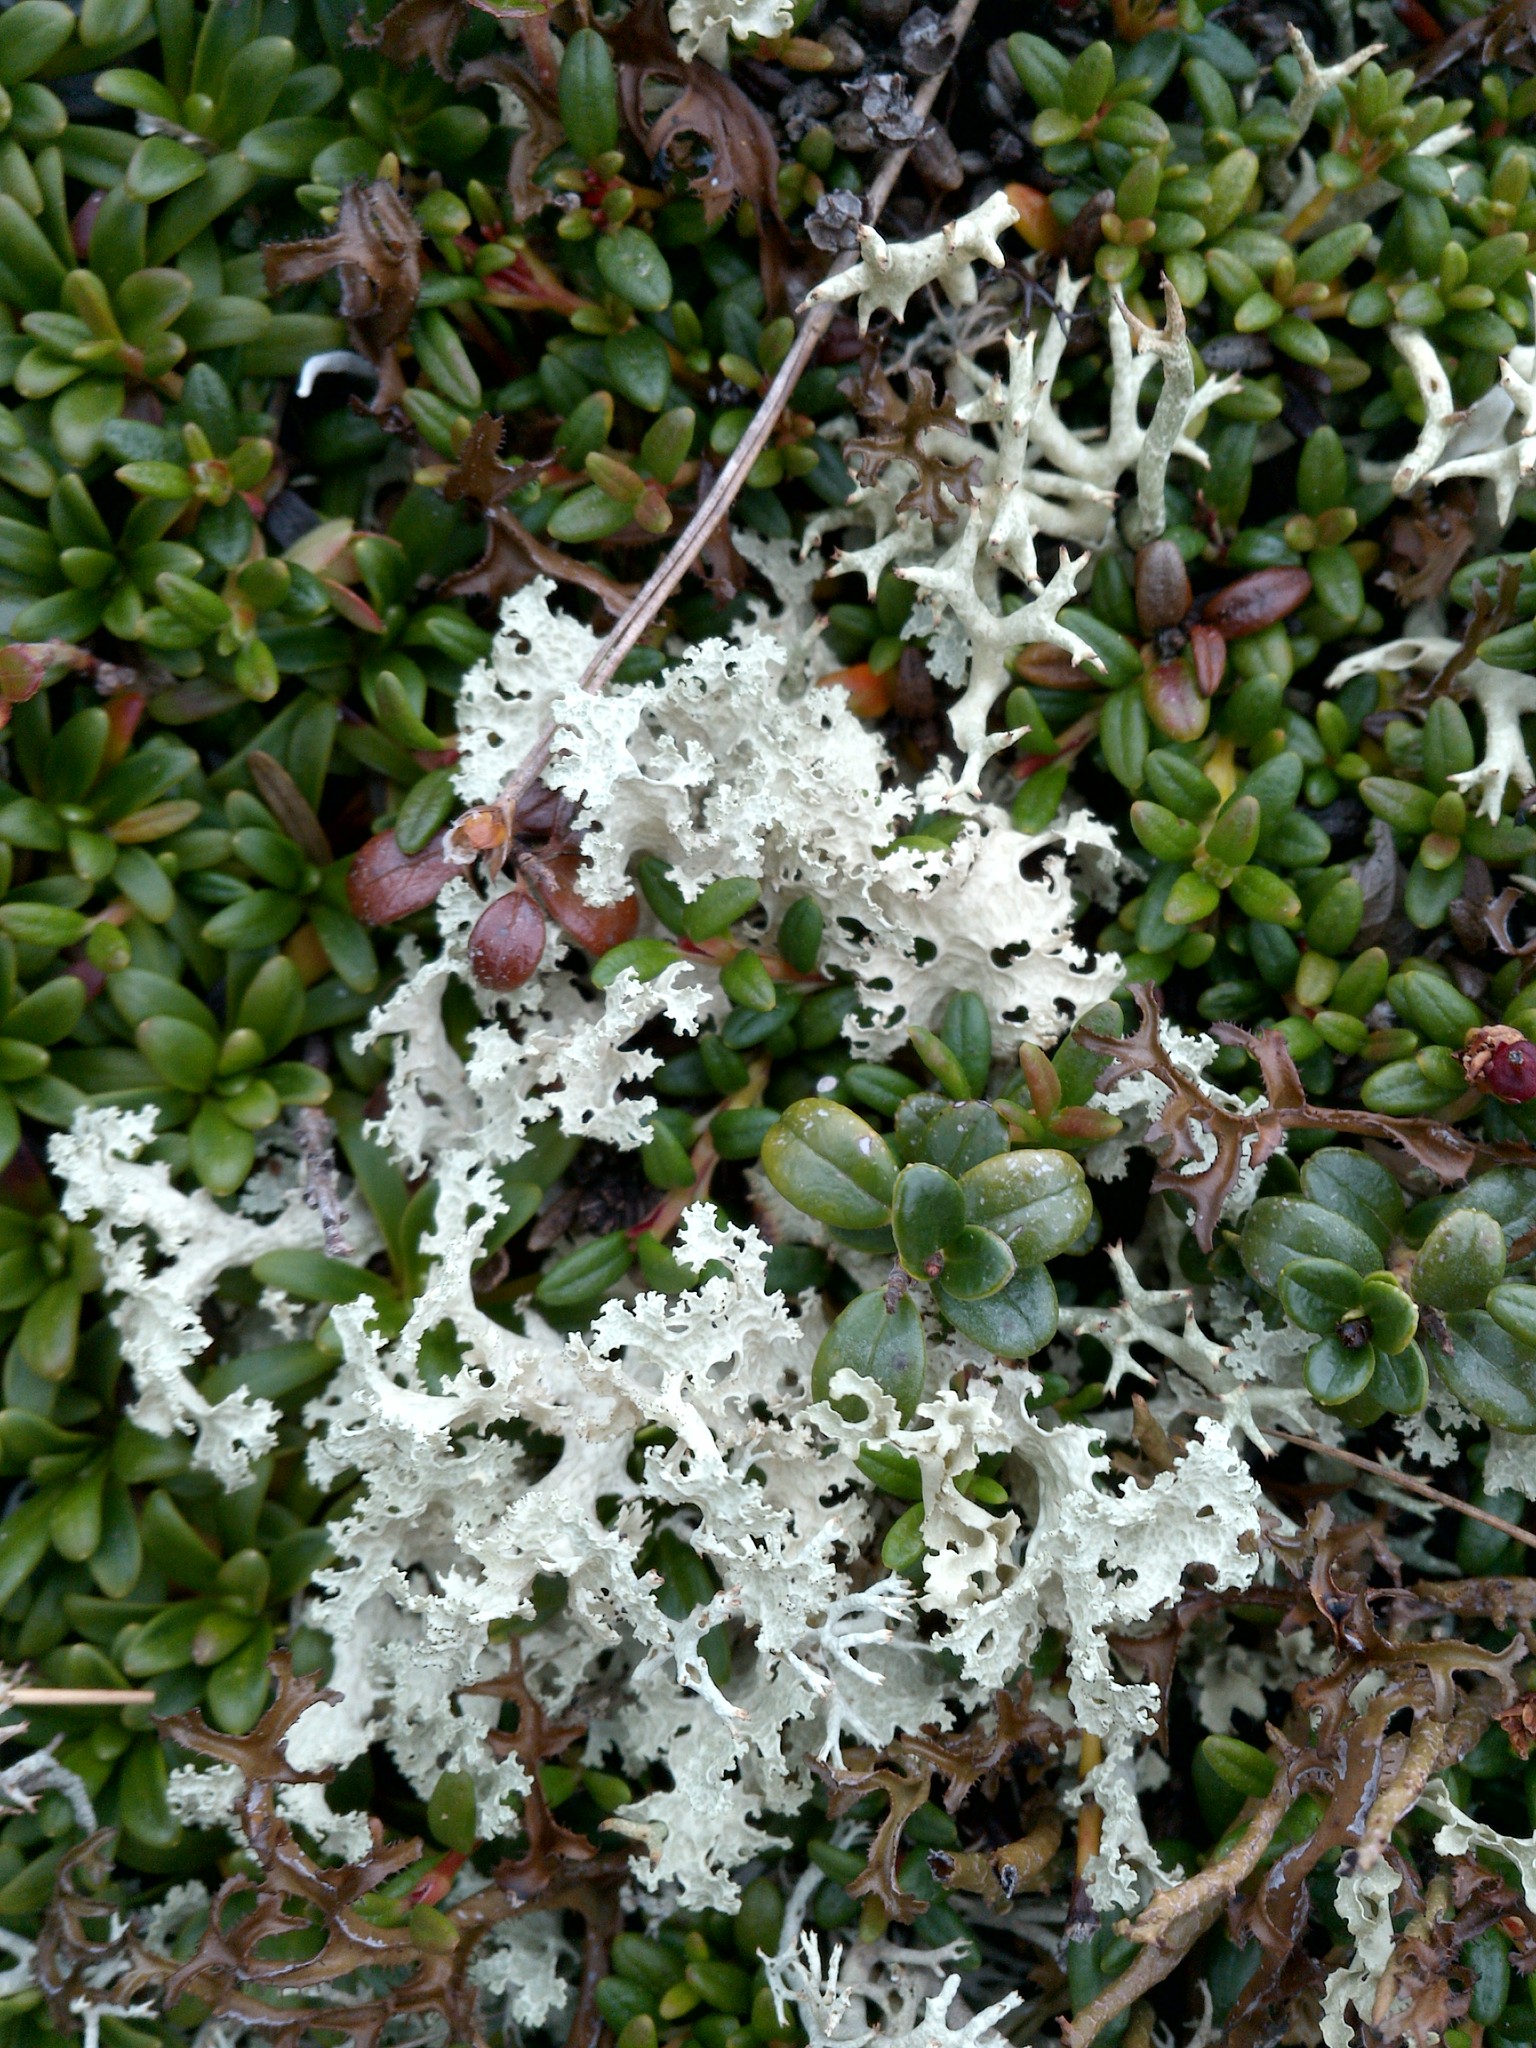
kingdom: Fungi
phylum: Ascomycota
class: Lecanoromycetes
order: Lecanorales
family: Parmeliaceae
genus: Nephromopsis
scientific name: Nephromopsis nivalis
